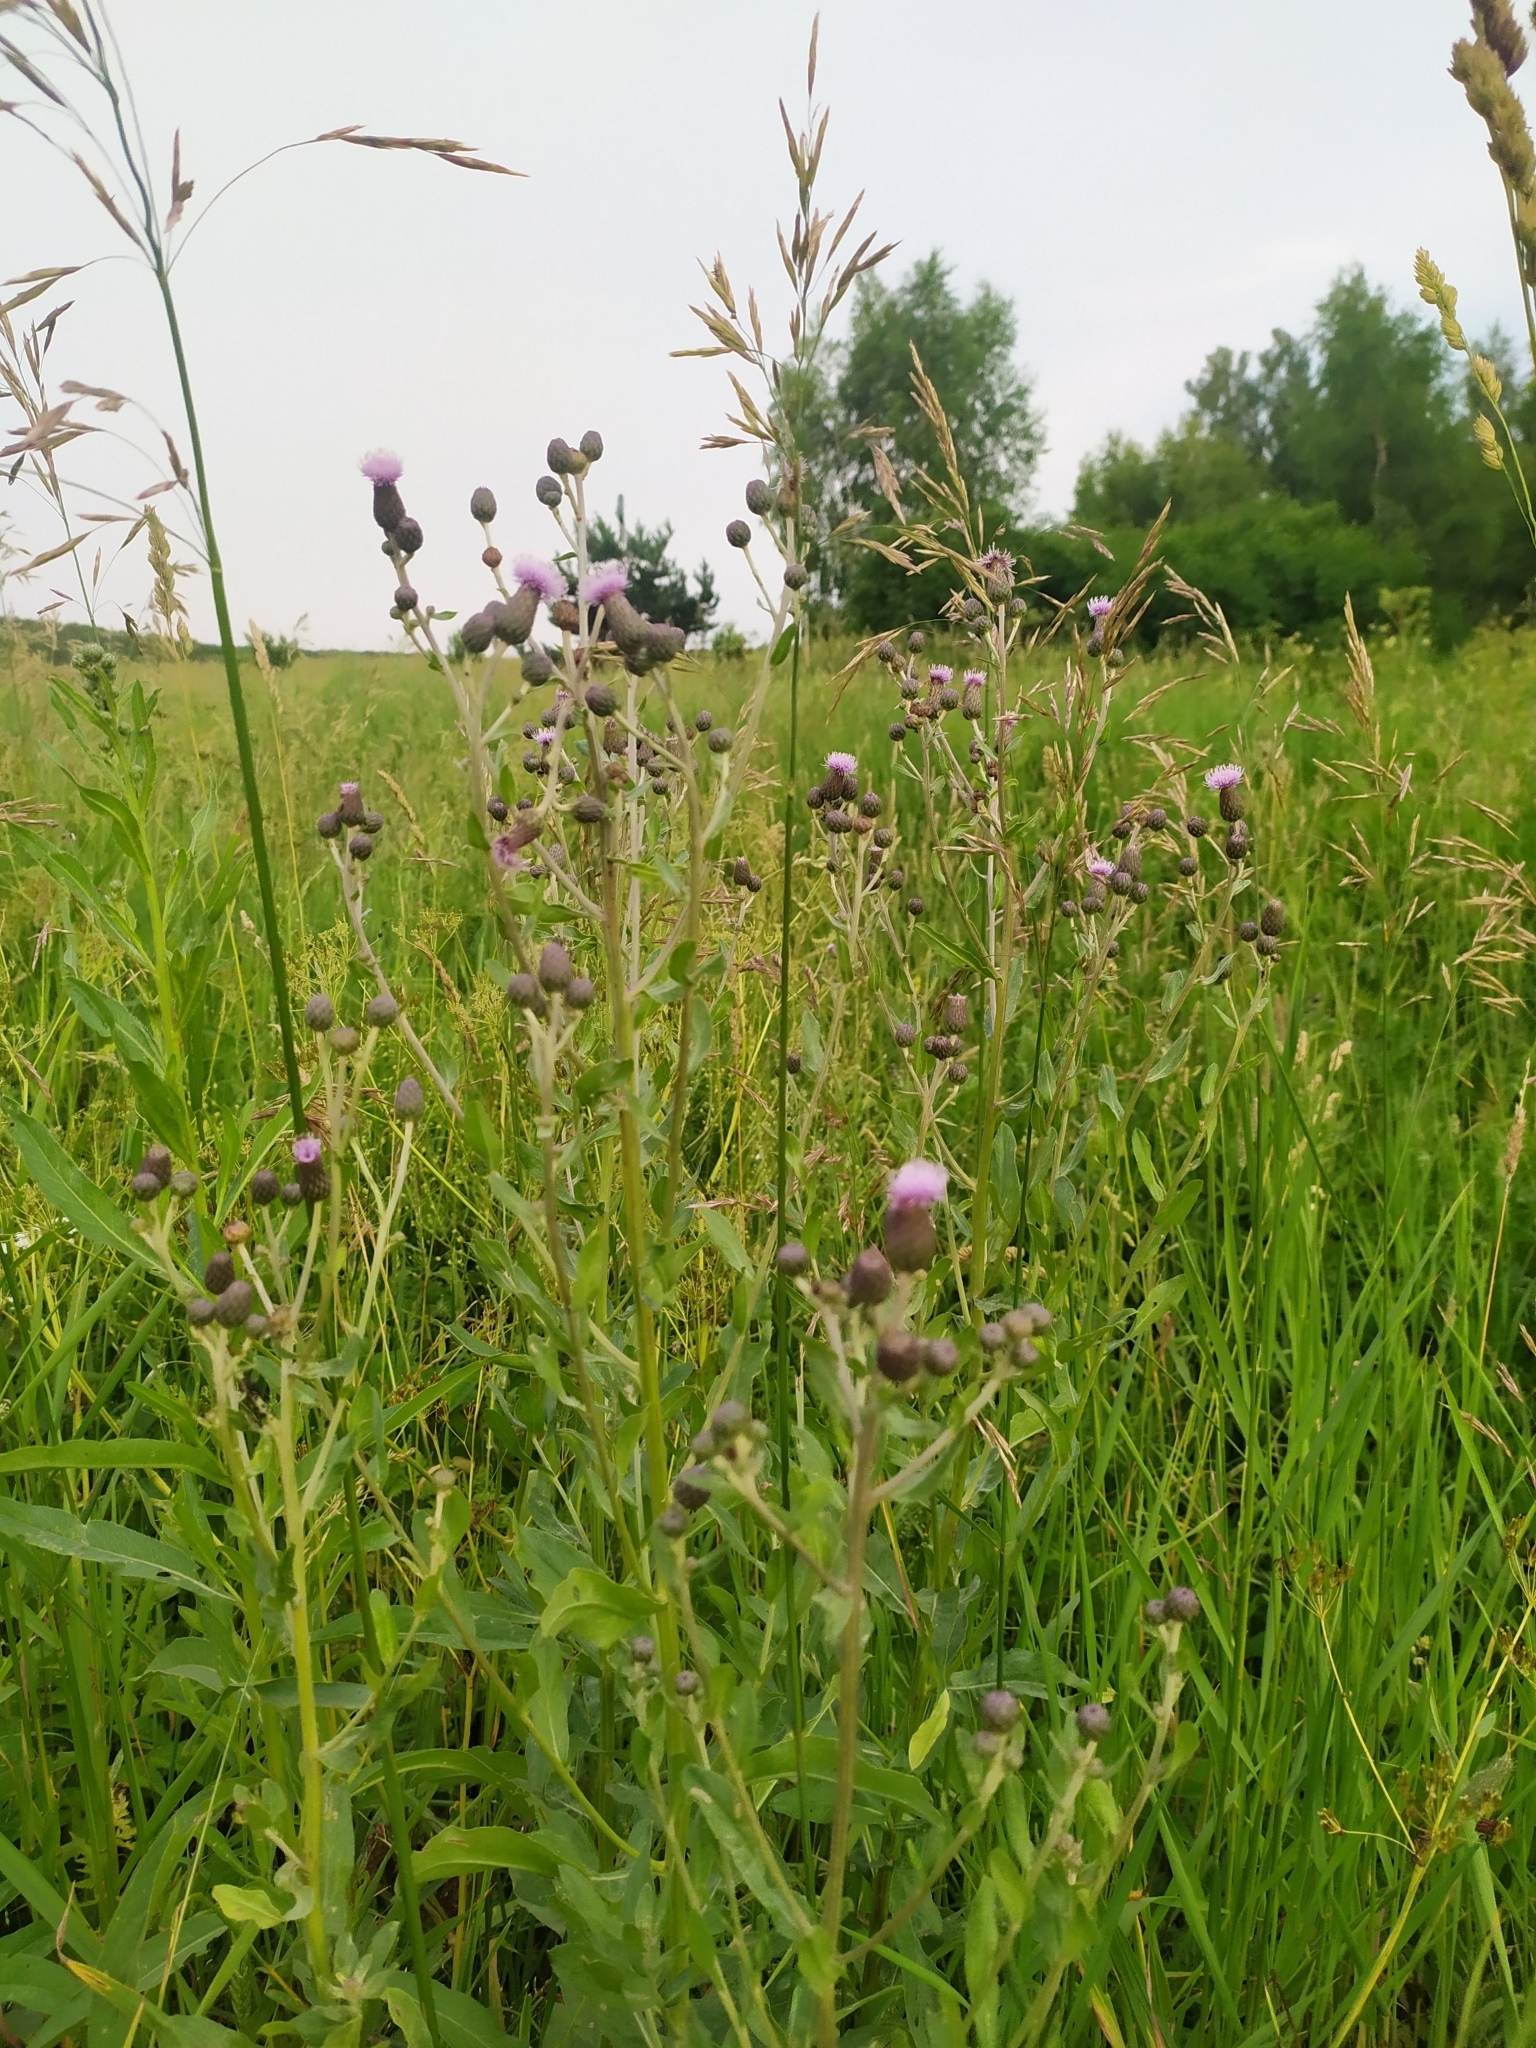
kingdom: Plantae
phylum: Tracheophyta
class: Magnoliopsida
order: Asterales
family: Asteraceae
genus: Cirsium
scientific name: Cirsium arvense
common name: Creeping thistle
